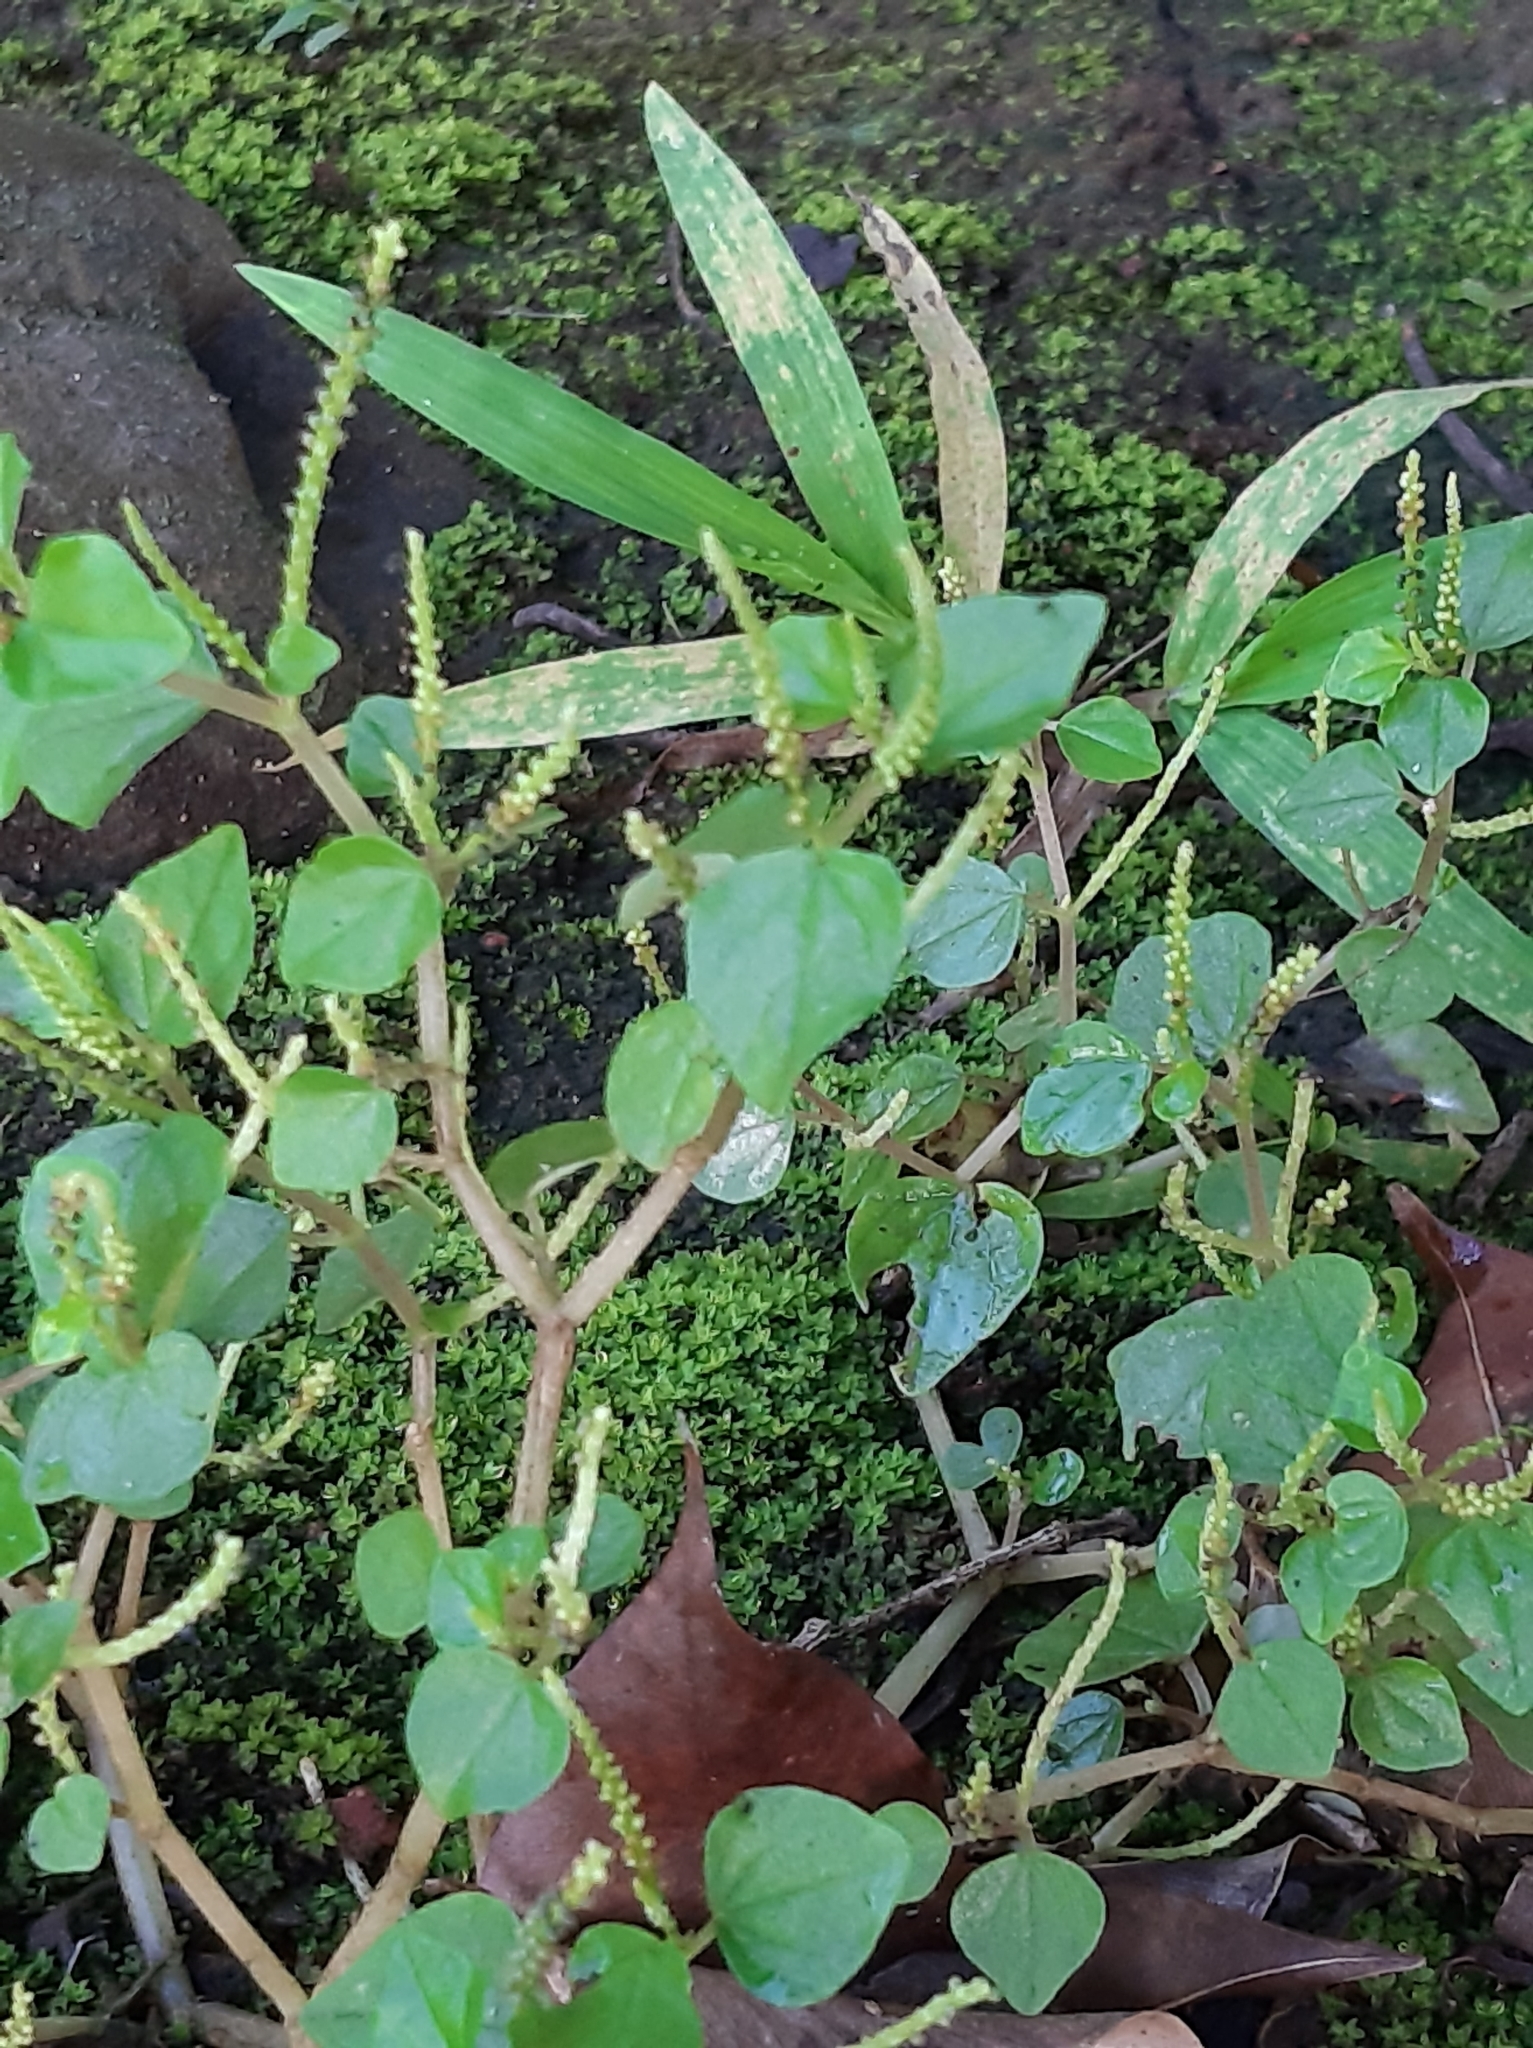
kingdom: Plantae
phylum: Tracheophyta
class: Magnoliopsida
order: Piperales
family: Piperaceae
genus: Peperomia
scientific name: Peperomia pellucida
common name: Man to man
